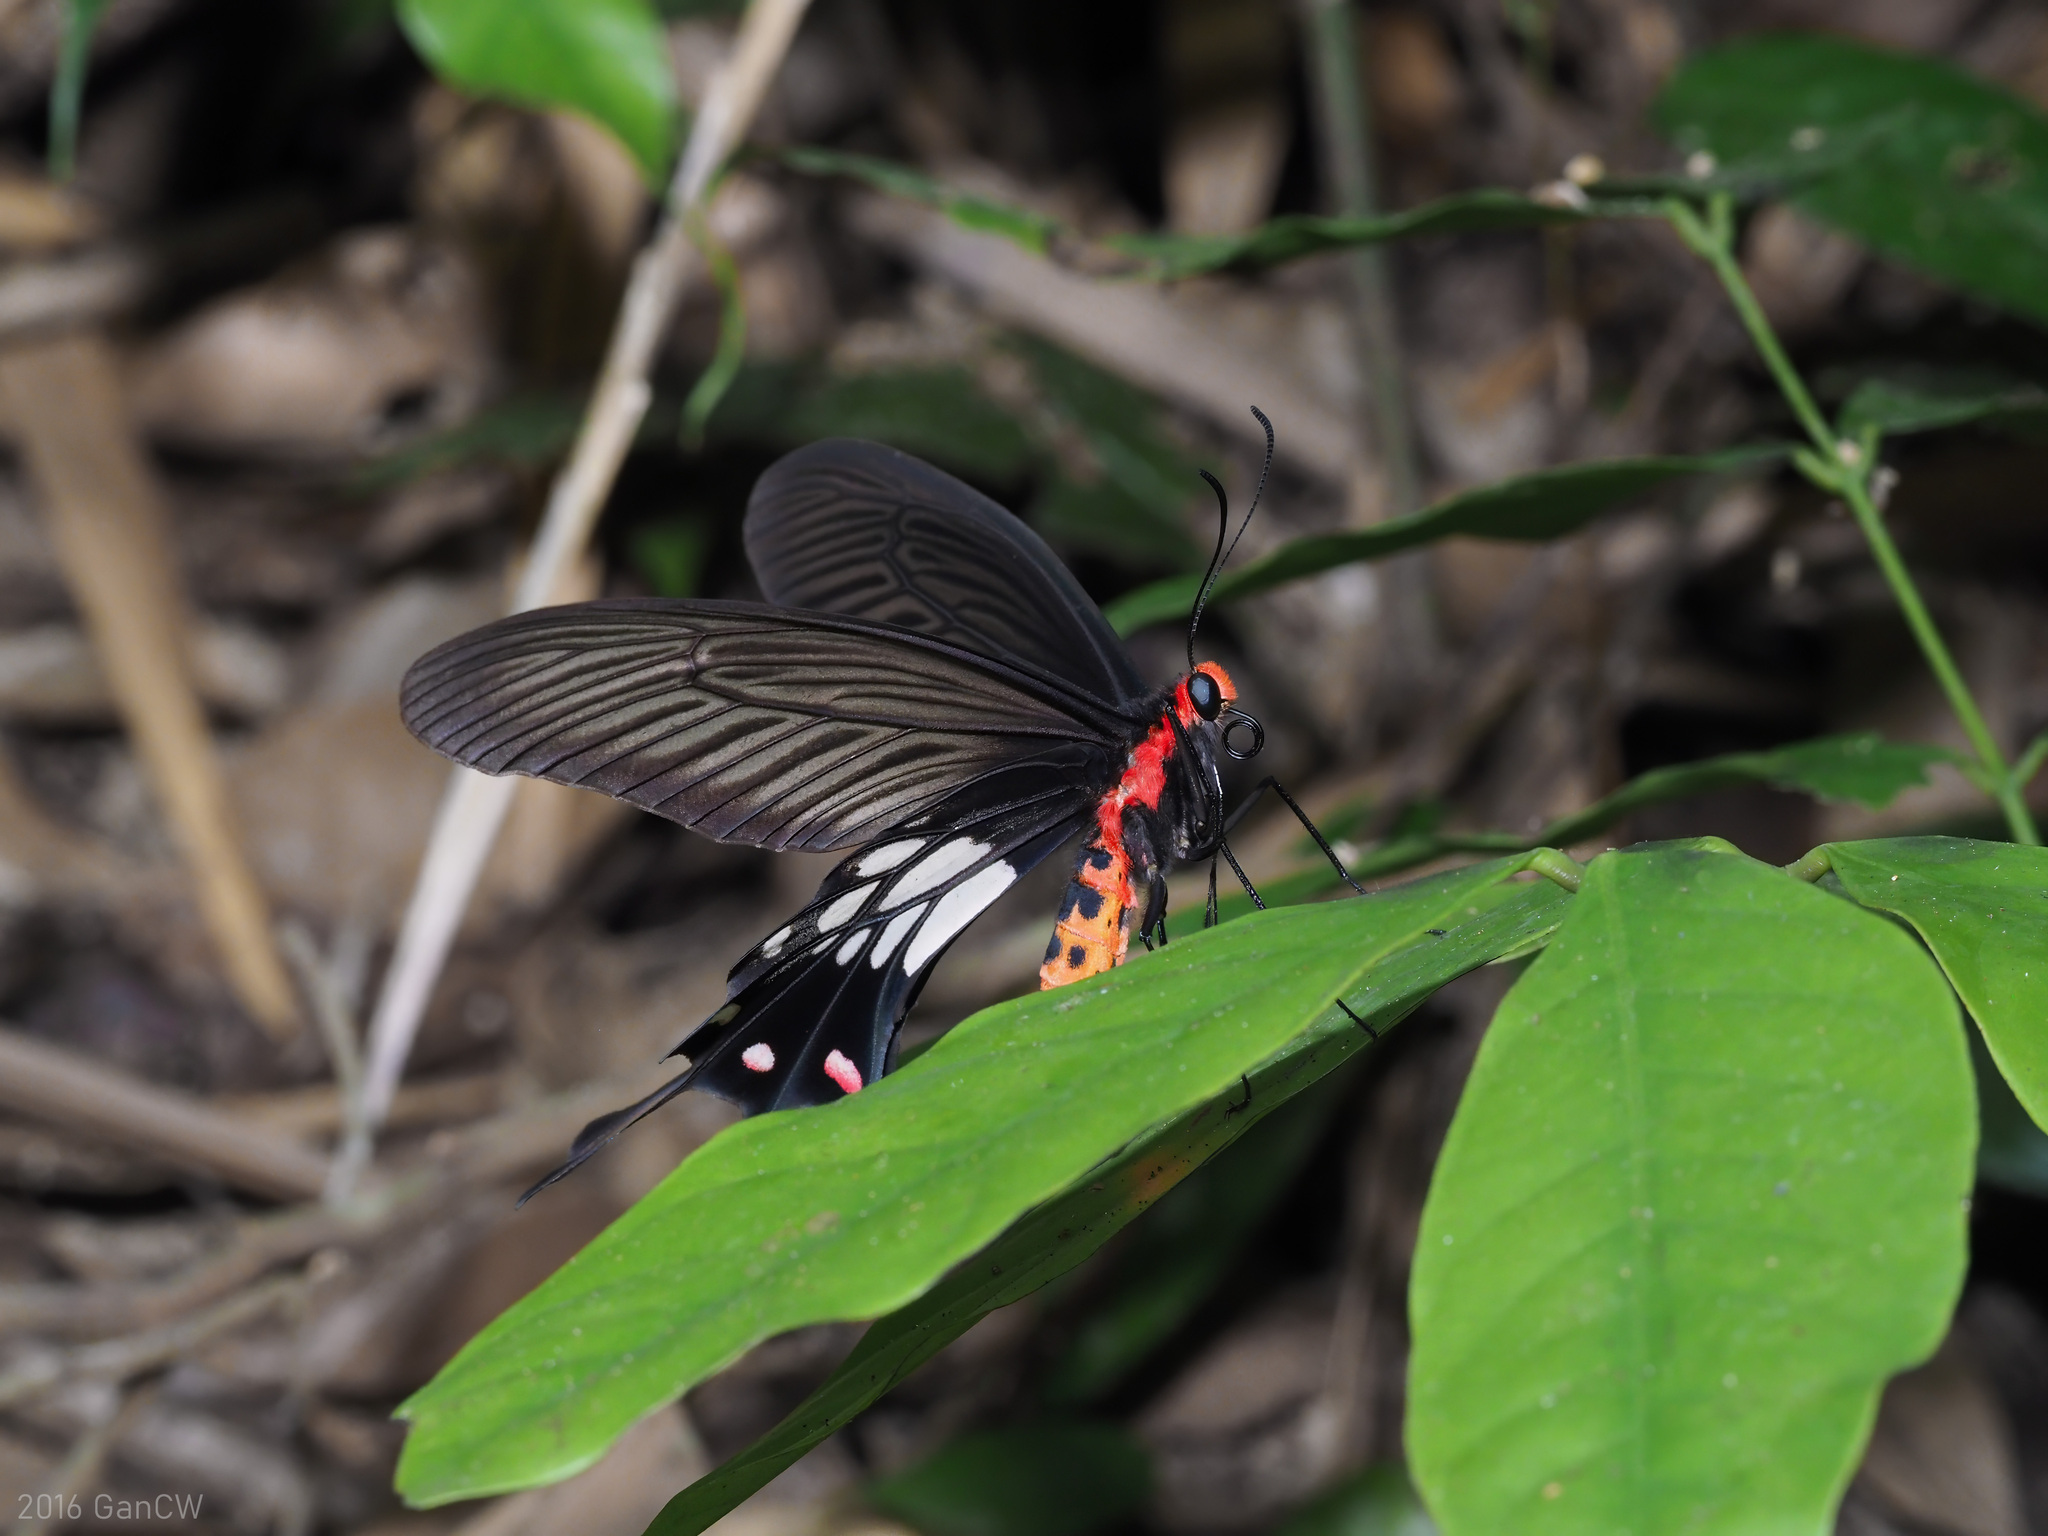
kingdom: Animalia
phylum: Arthropoda
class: Insecta
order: Lepidoptera
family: Papilionidae
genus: Losaria
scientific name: Losaria
